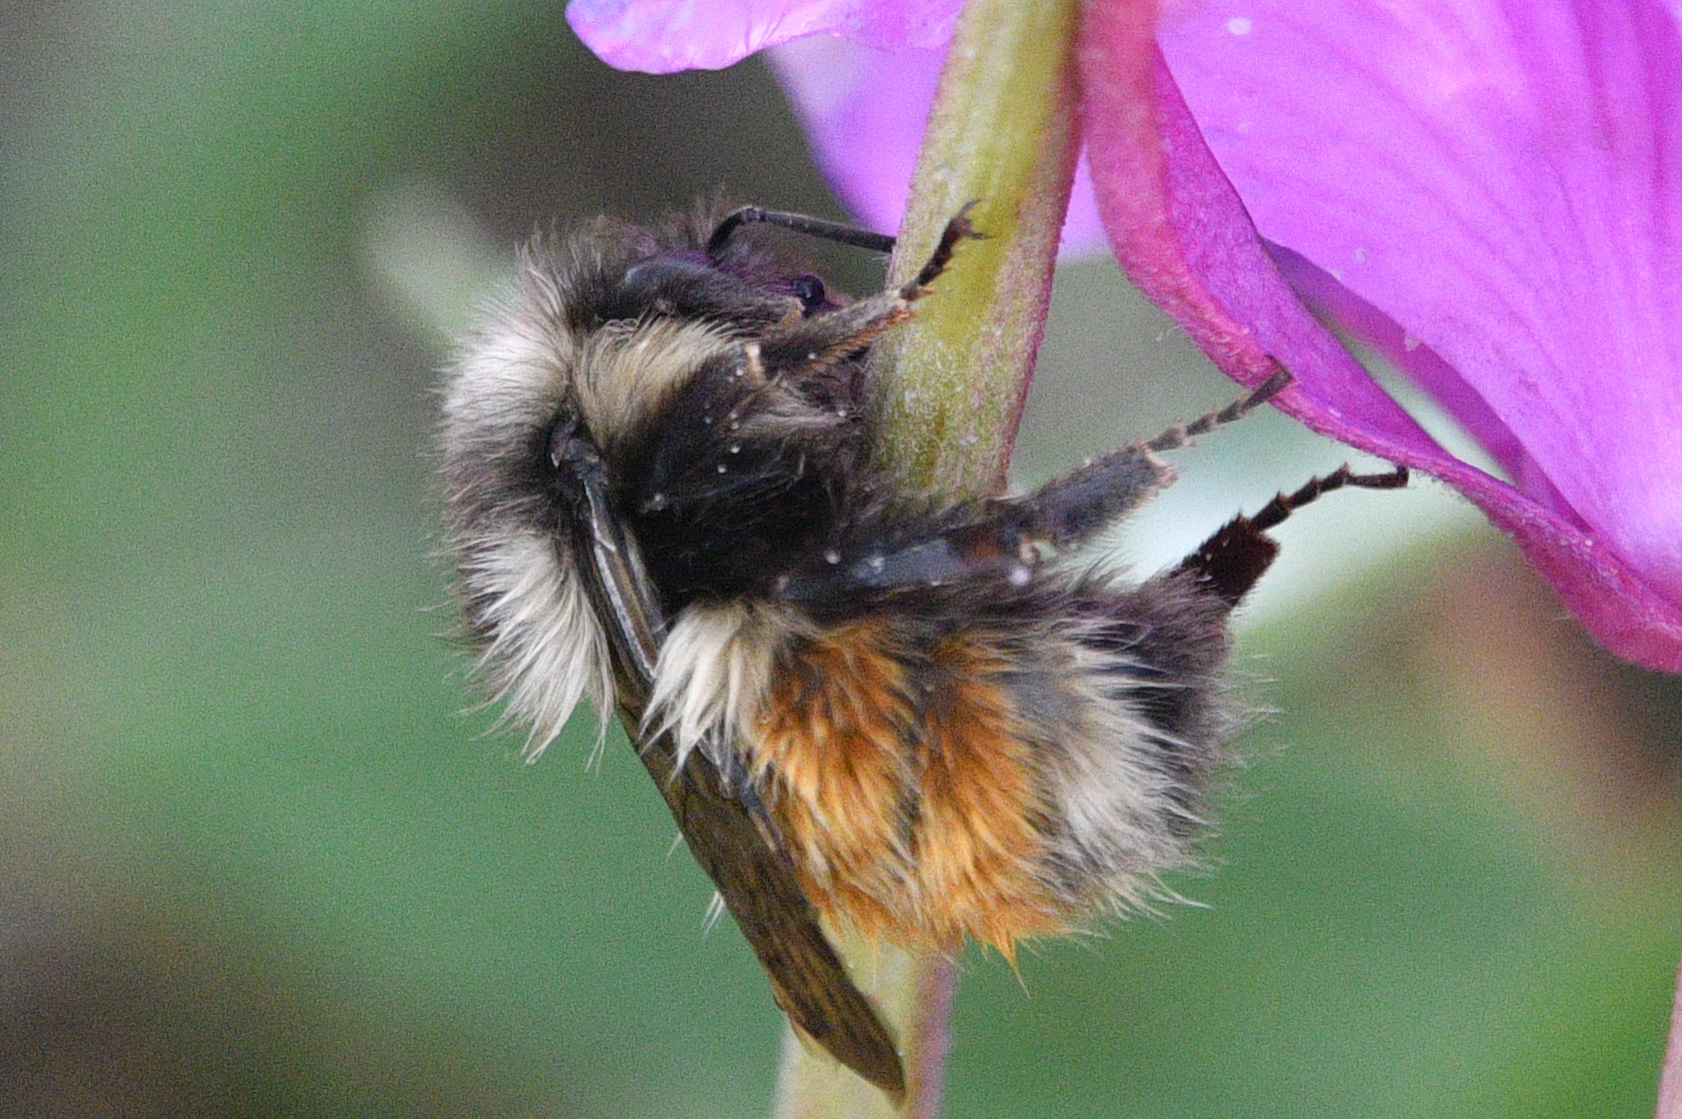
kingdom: Animalia
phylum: Arthropoda
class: Insecta
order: Hymenoptera
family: Apidae
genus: Bombus
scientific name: Bombus sylvicola
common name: Forest bumble bee
